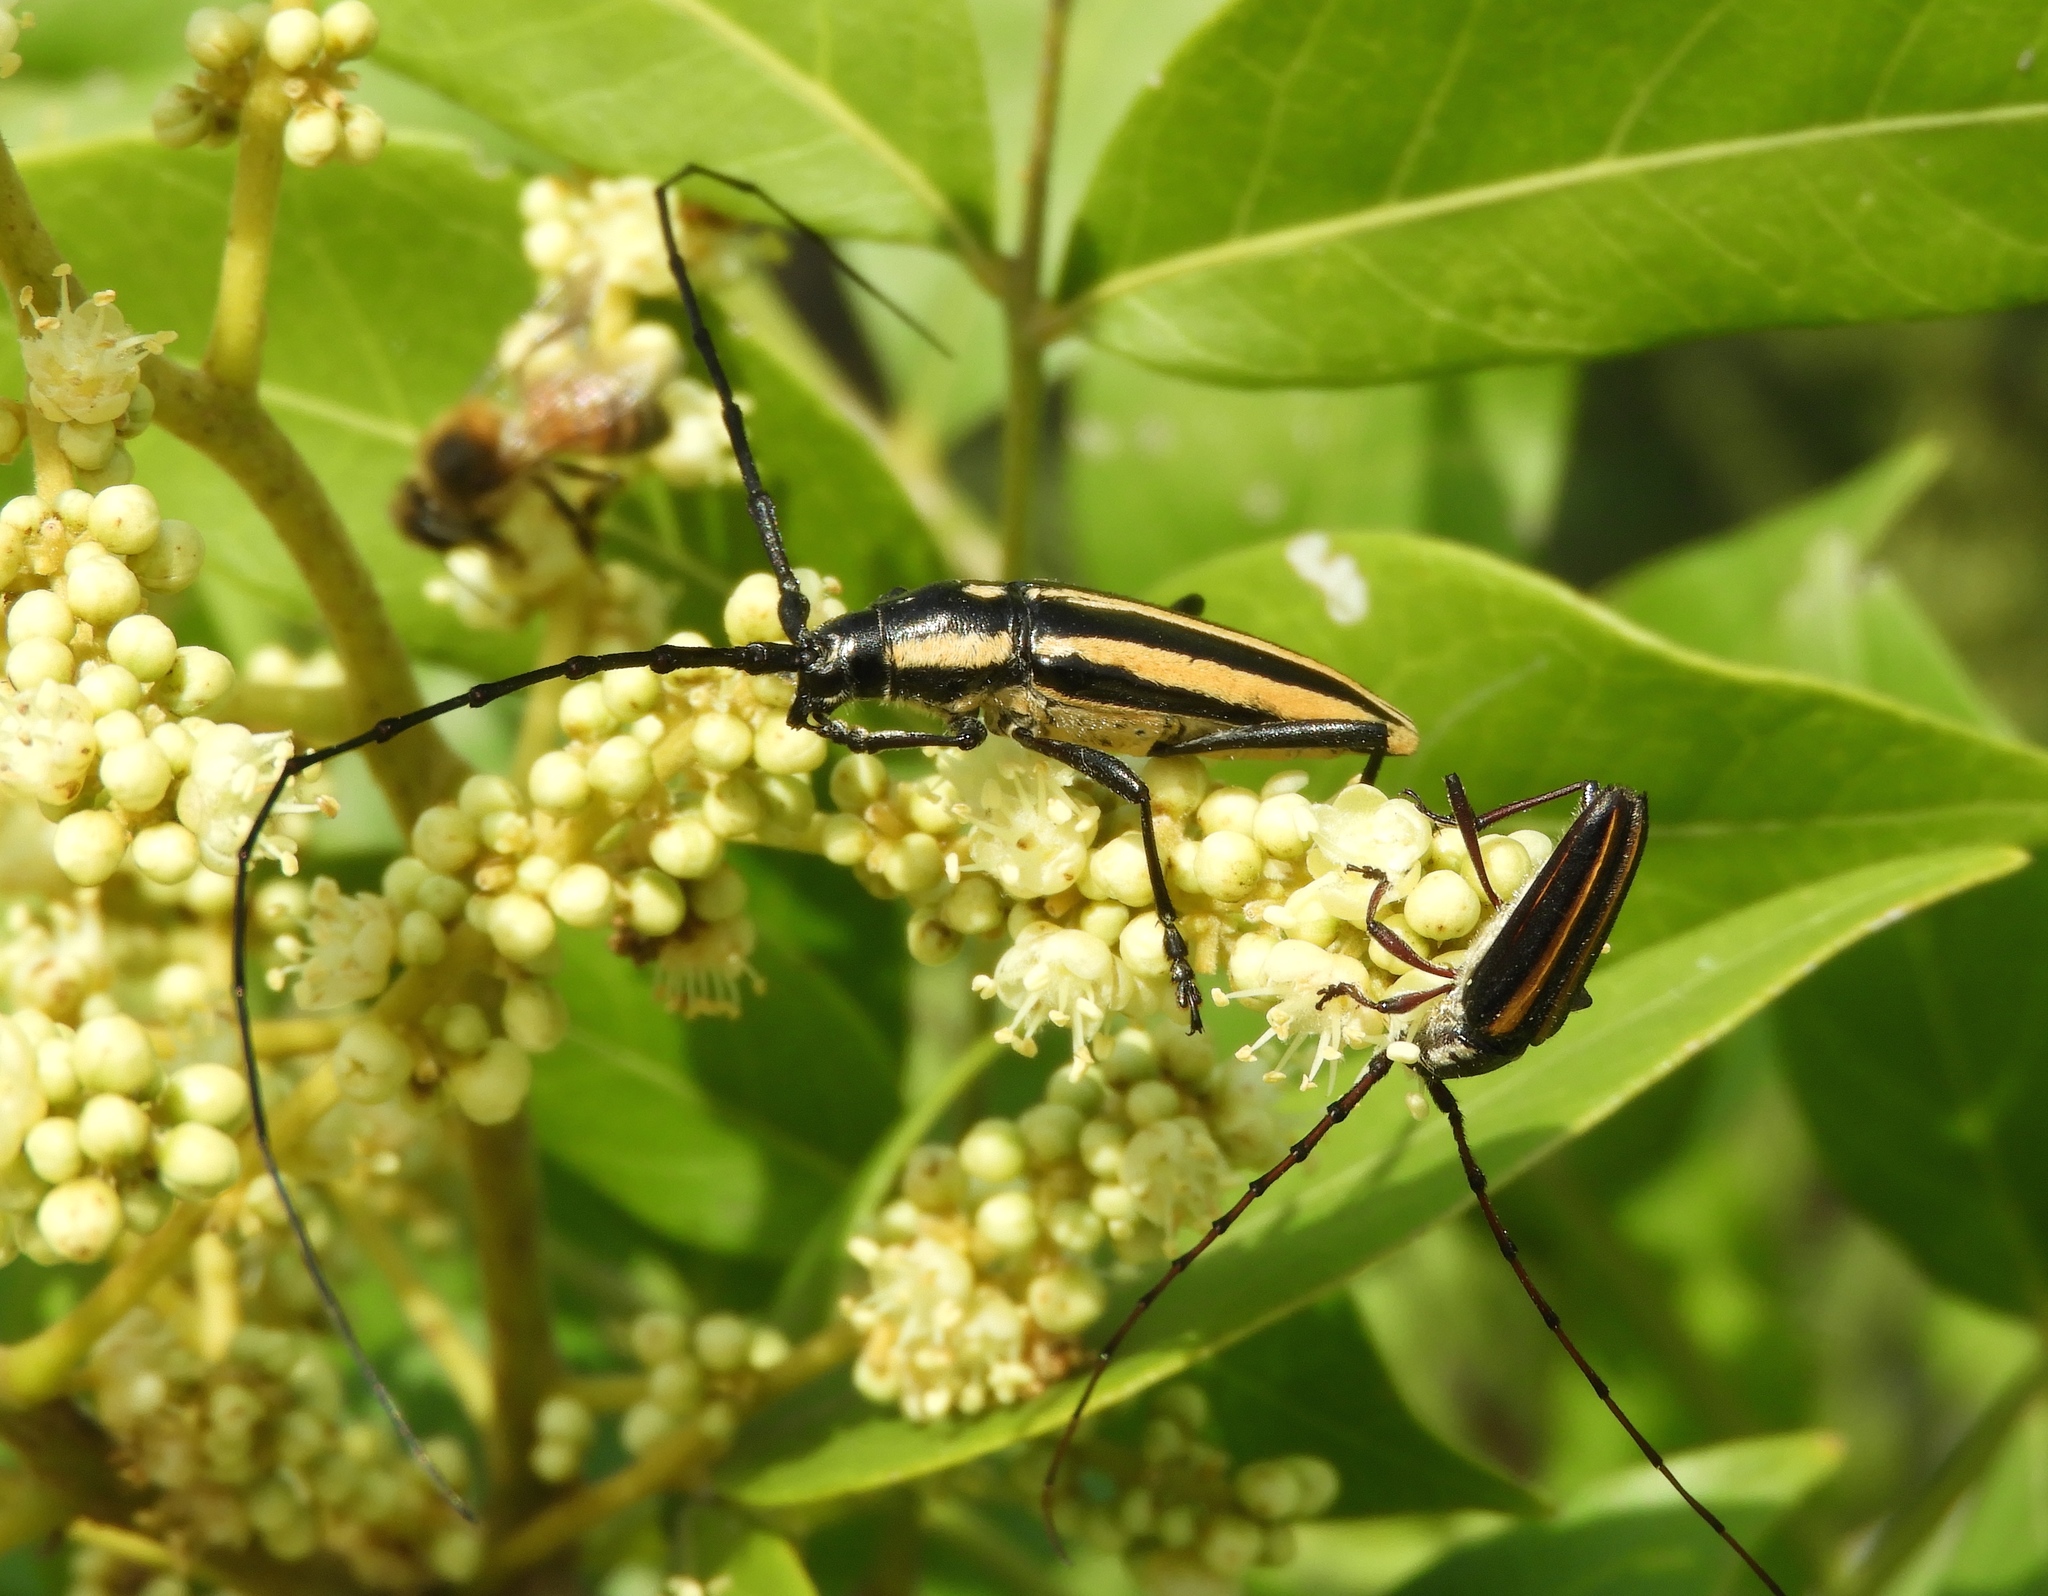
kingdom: Animalia
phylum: Arthropoda
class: Insecta
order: Coleoptera
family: Cerambycidae
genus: Sphaenothecus
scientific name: Sphaenothecus trilineatus
